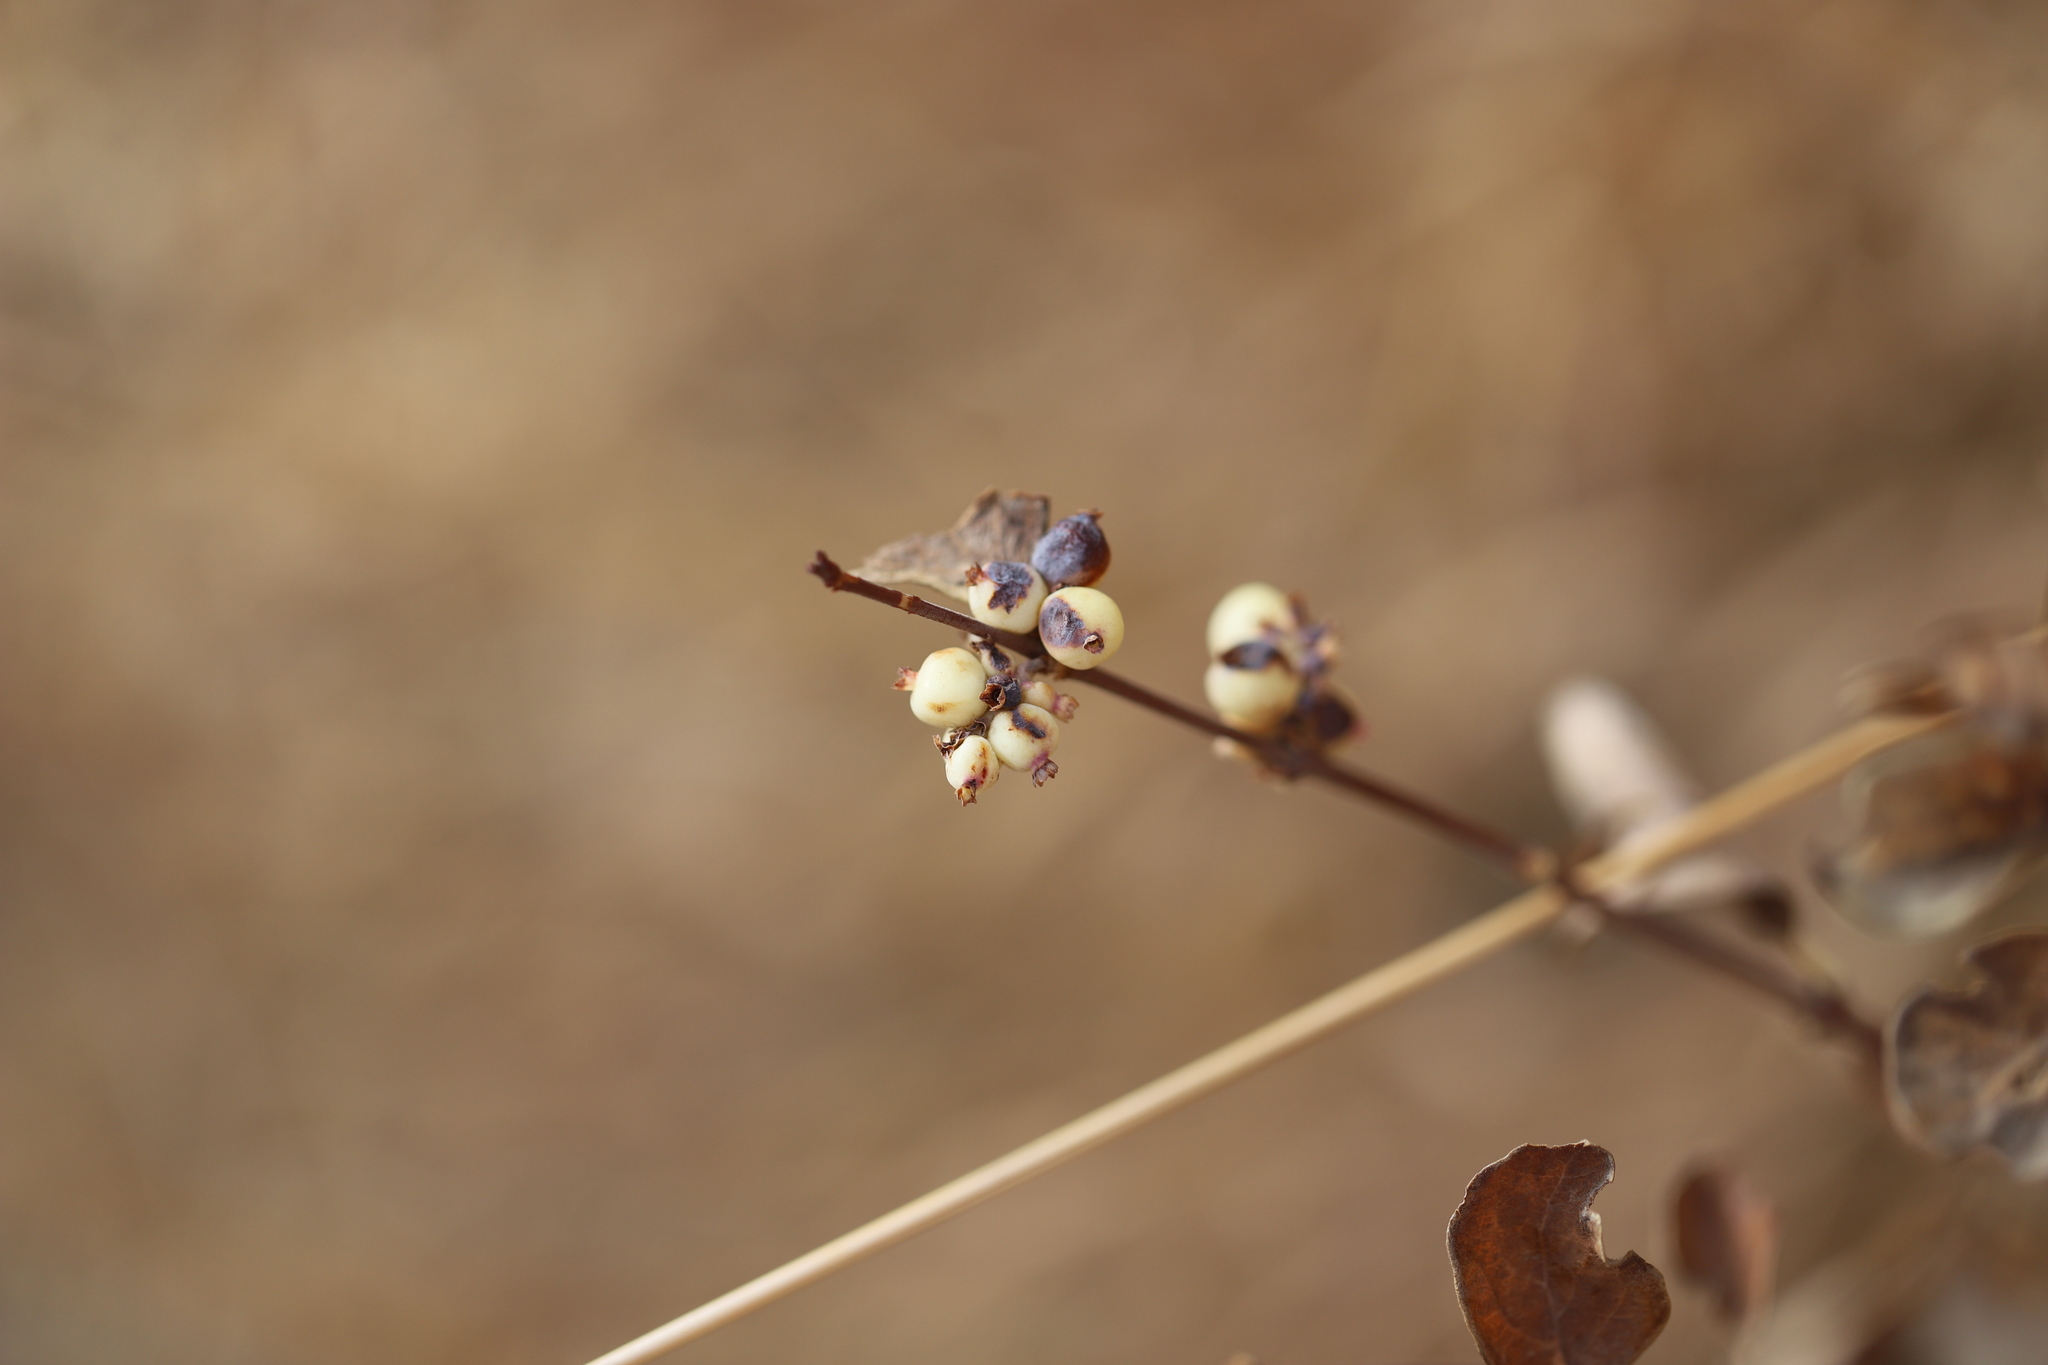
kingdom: Plantae
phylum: Tracheophyta
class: Magnoliopsida
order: Dipsacales
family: Caprifoliaceae
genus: Symphoricarpos
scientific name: Symphoricarpos occidentalis
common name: Wolfberry
